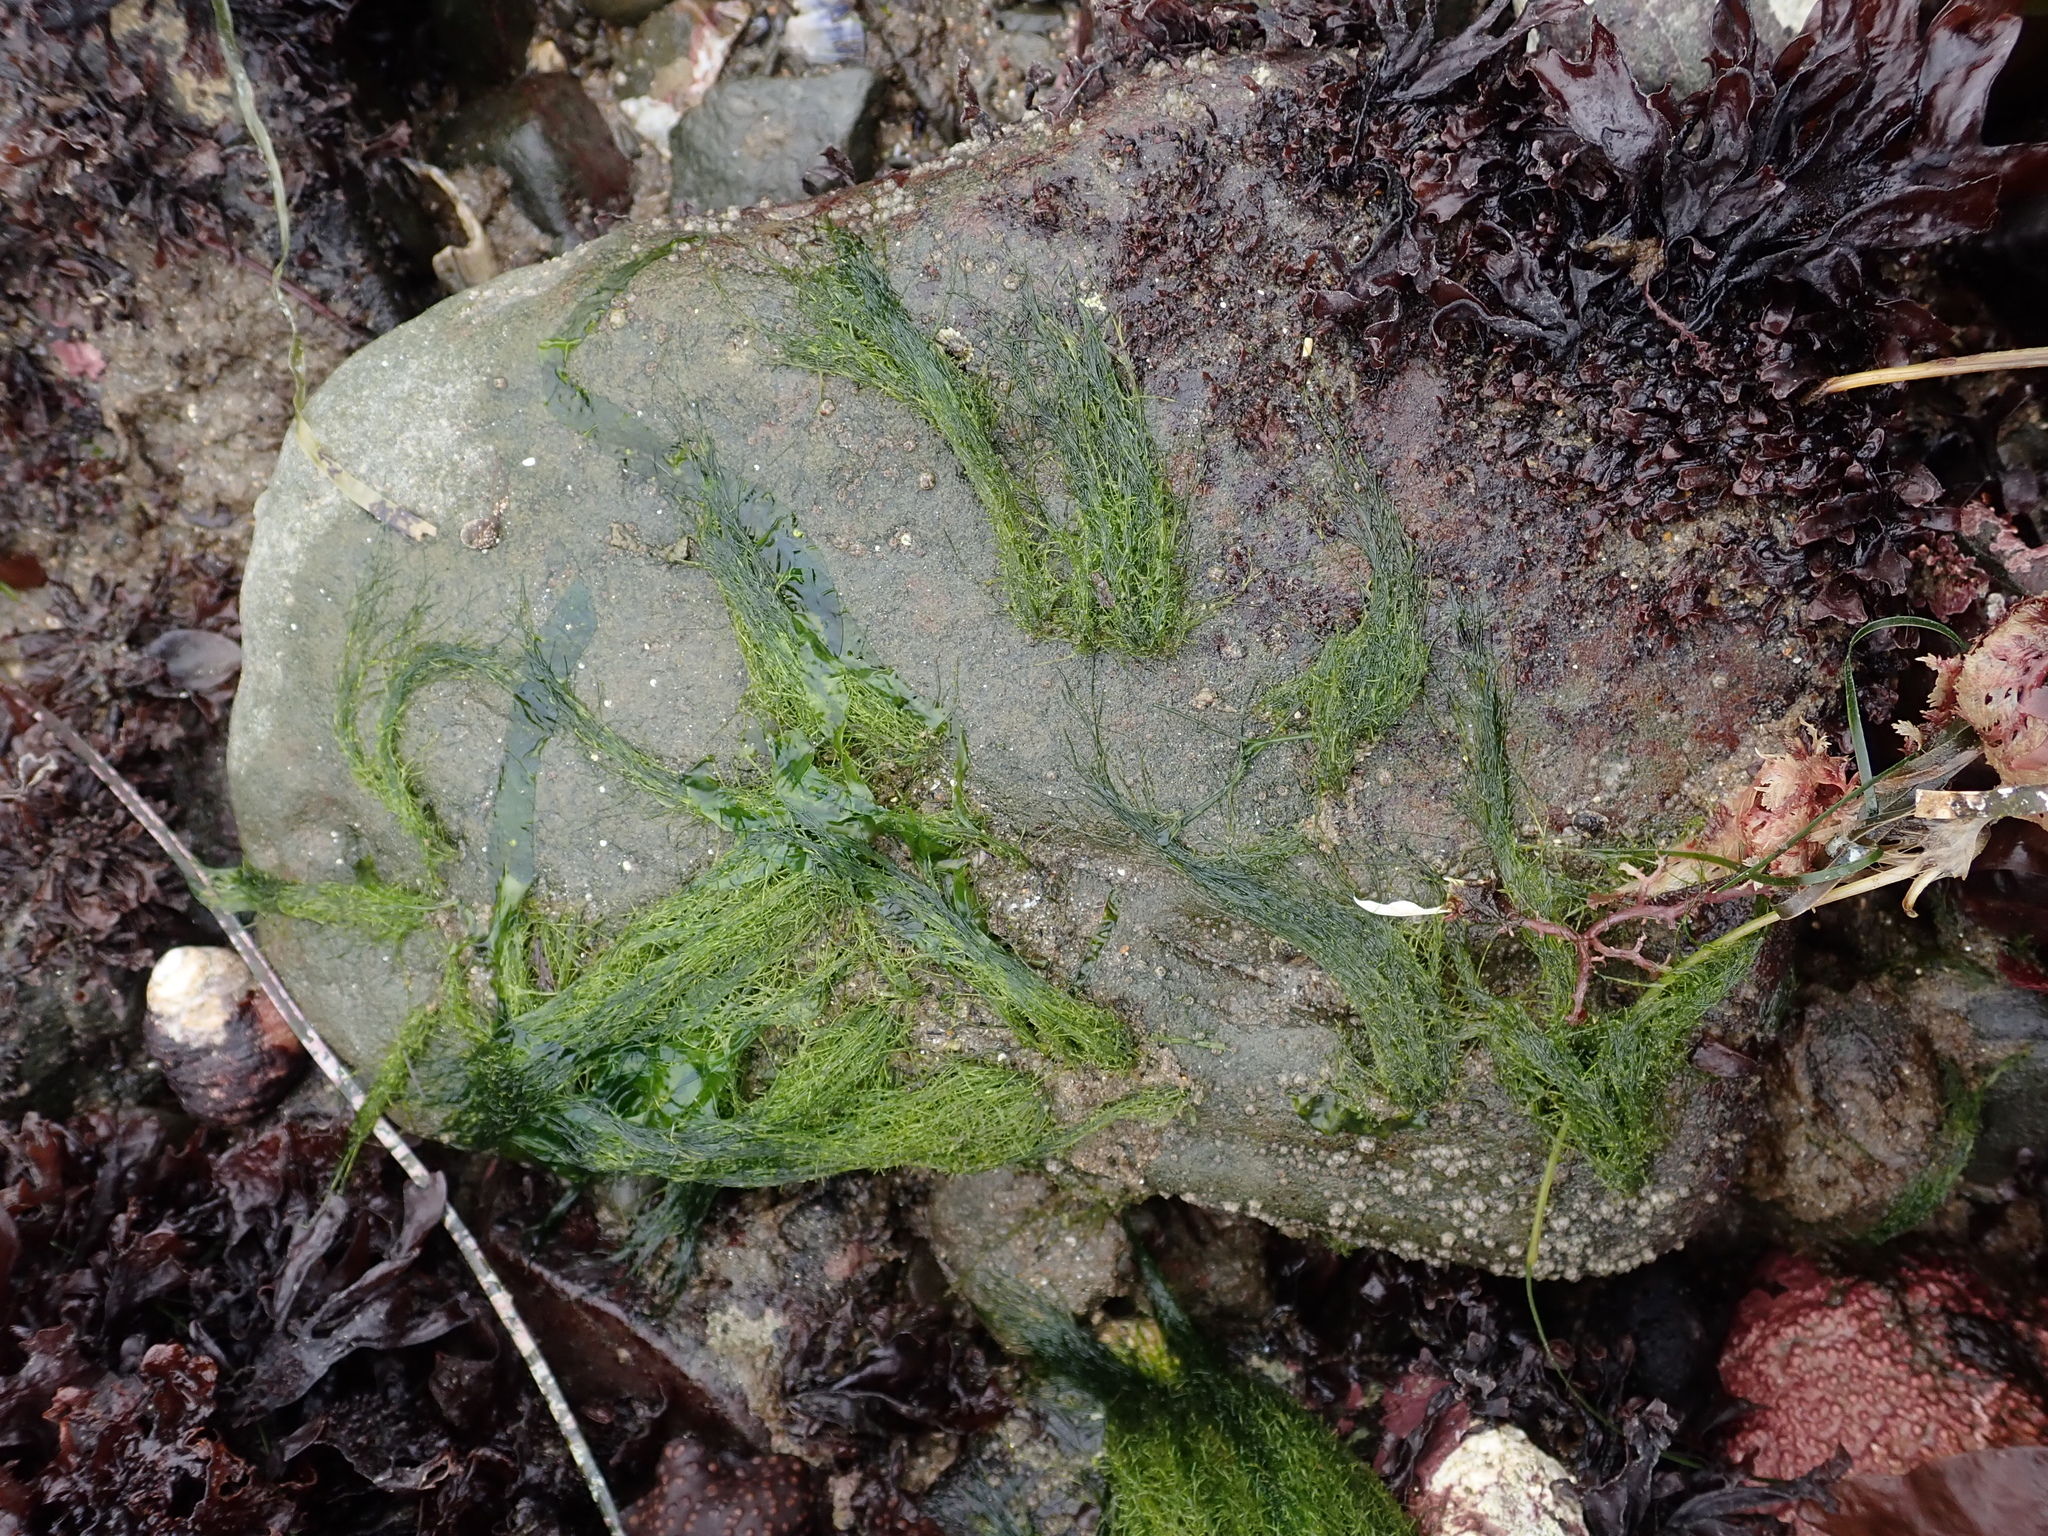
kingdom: Plantae
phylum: Chlorophyta
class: Ulvophyceae
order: Ulotrichales
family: Ulotrichaceae
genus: Acrosiphonia
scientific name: Acrosiphonia
